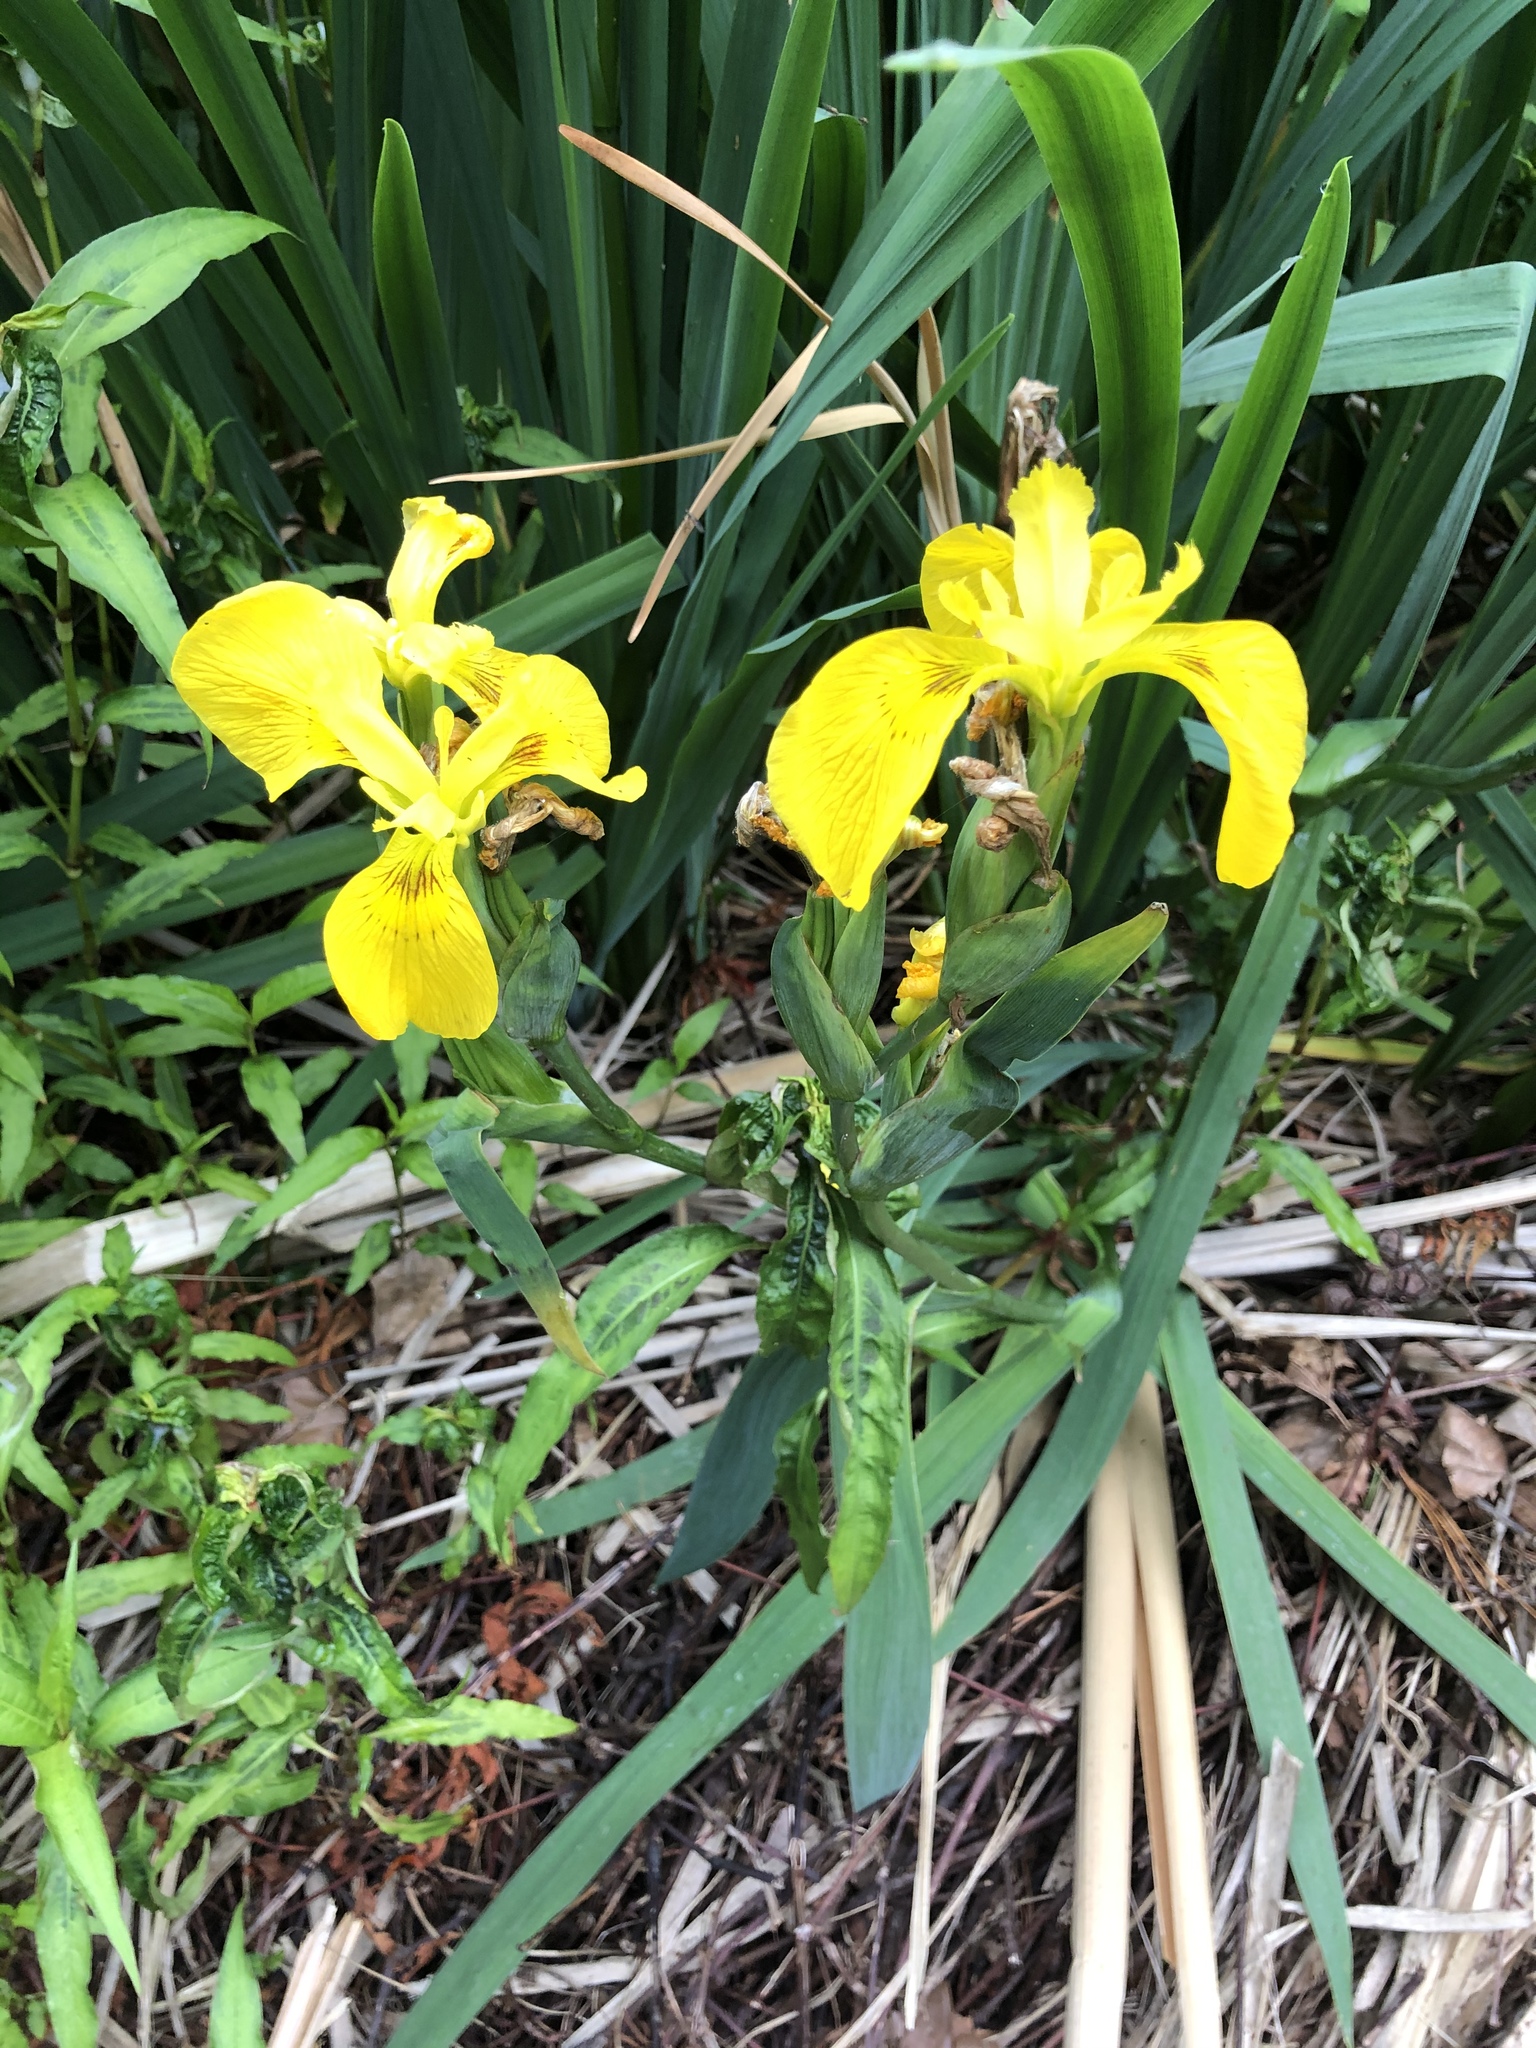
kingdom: Plantae
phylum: Tracheophyta
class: Liliopsida
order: Asparagales
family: Iridaceae
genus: Iris
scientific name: Iris pseudacorus
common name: Yellow flag
